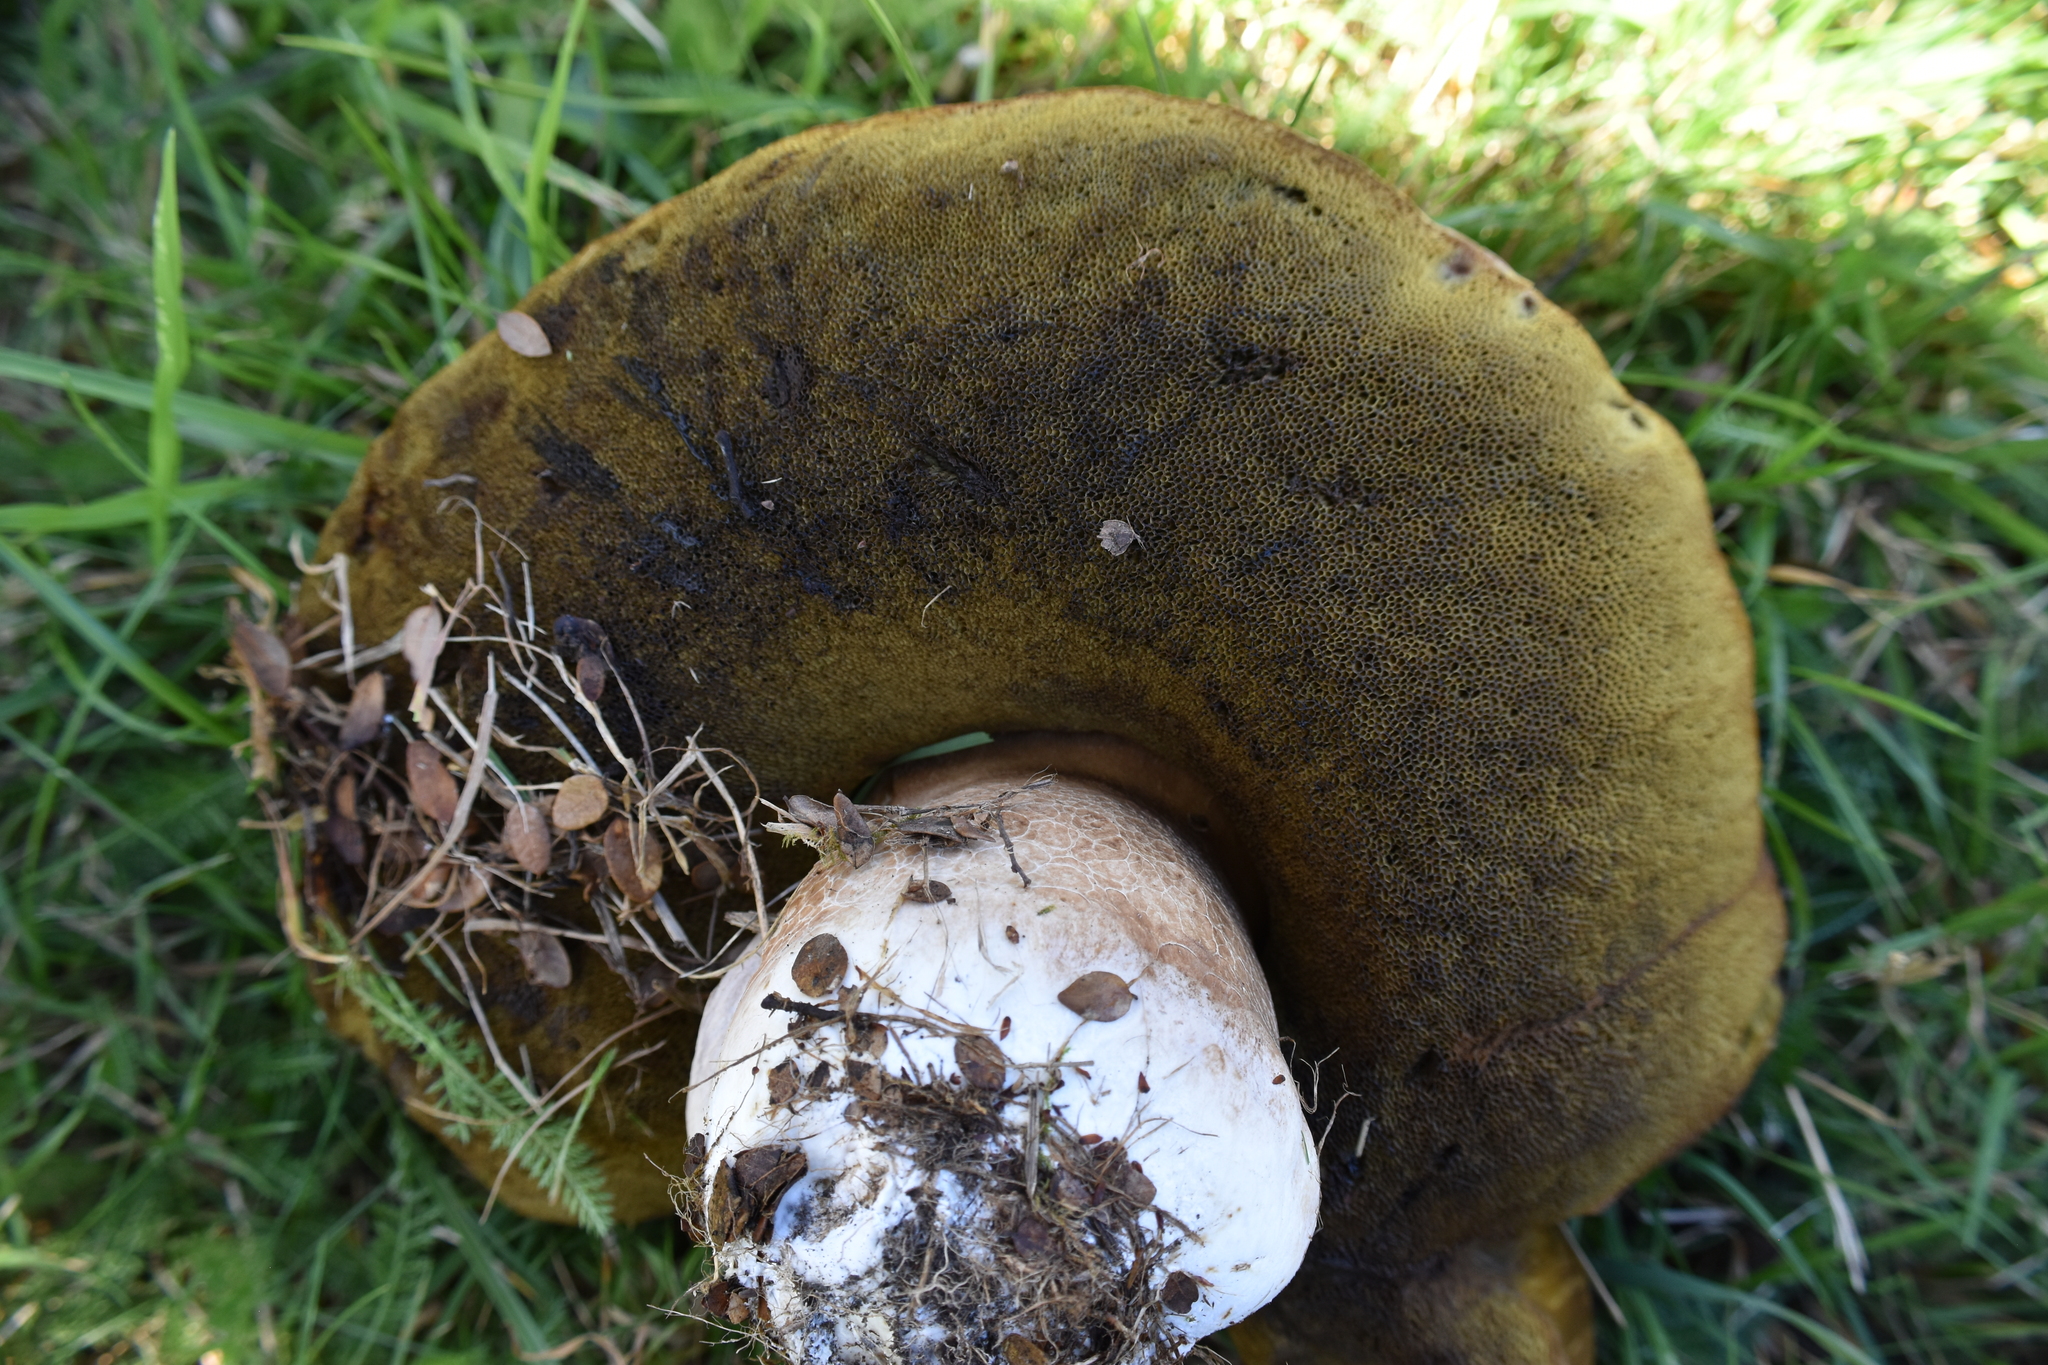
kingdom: Fungi
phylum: Basidiomycota
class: Agaricomycetes
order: Boletales
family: Boletaceae
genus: Boletus
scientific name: Boletus edulis
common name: Cep
